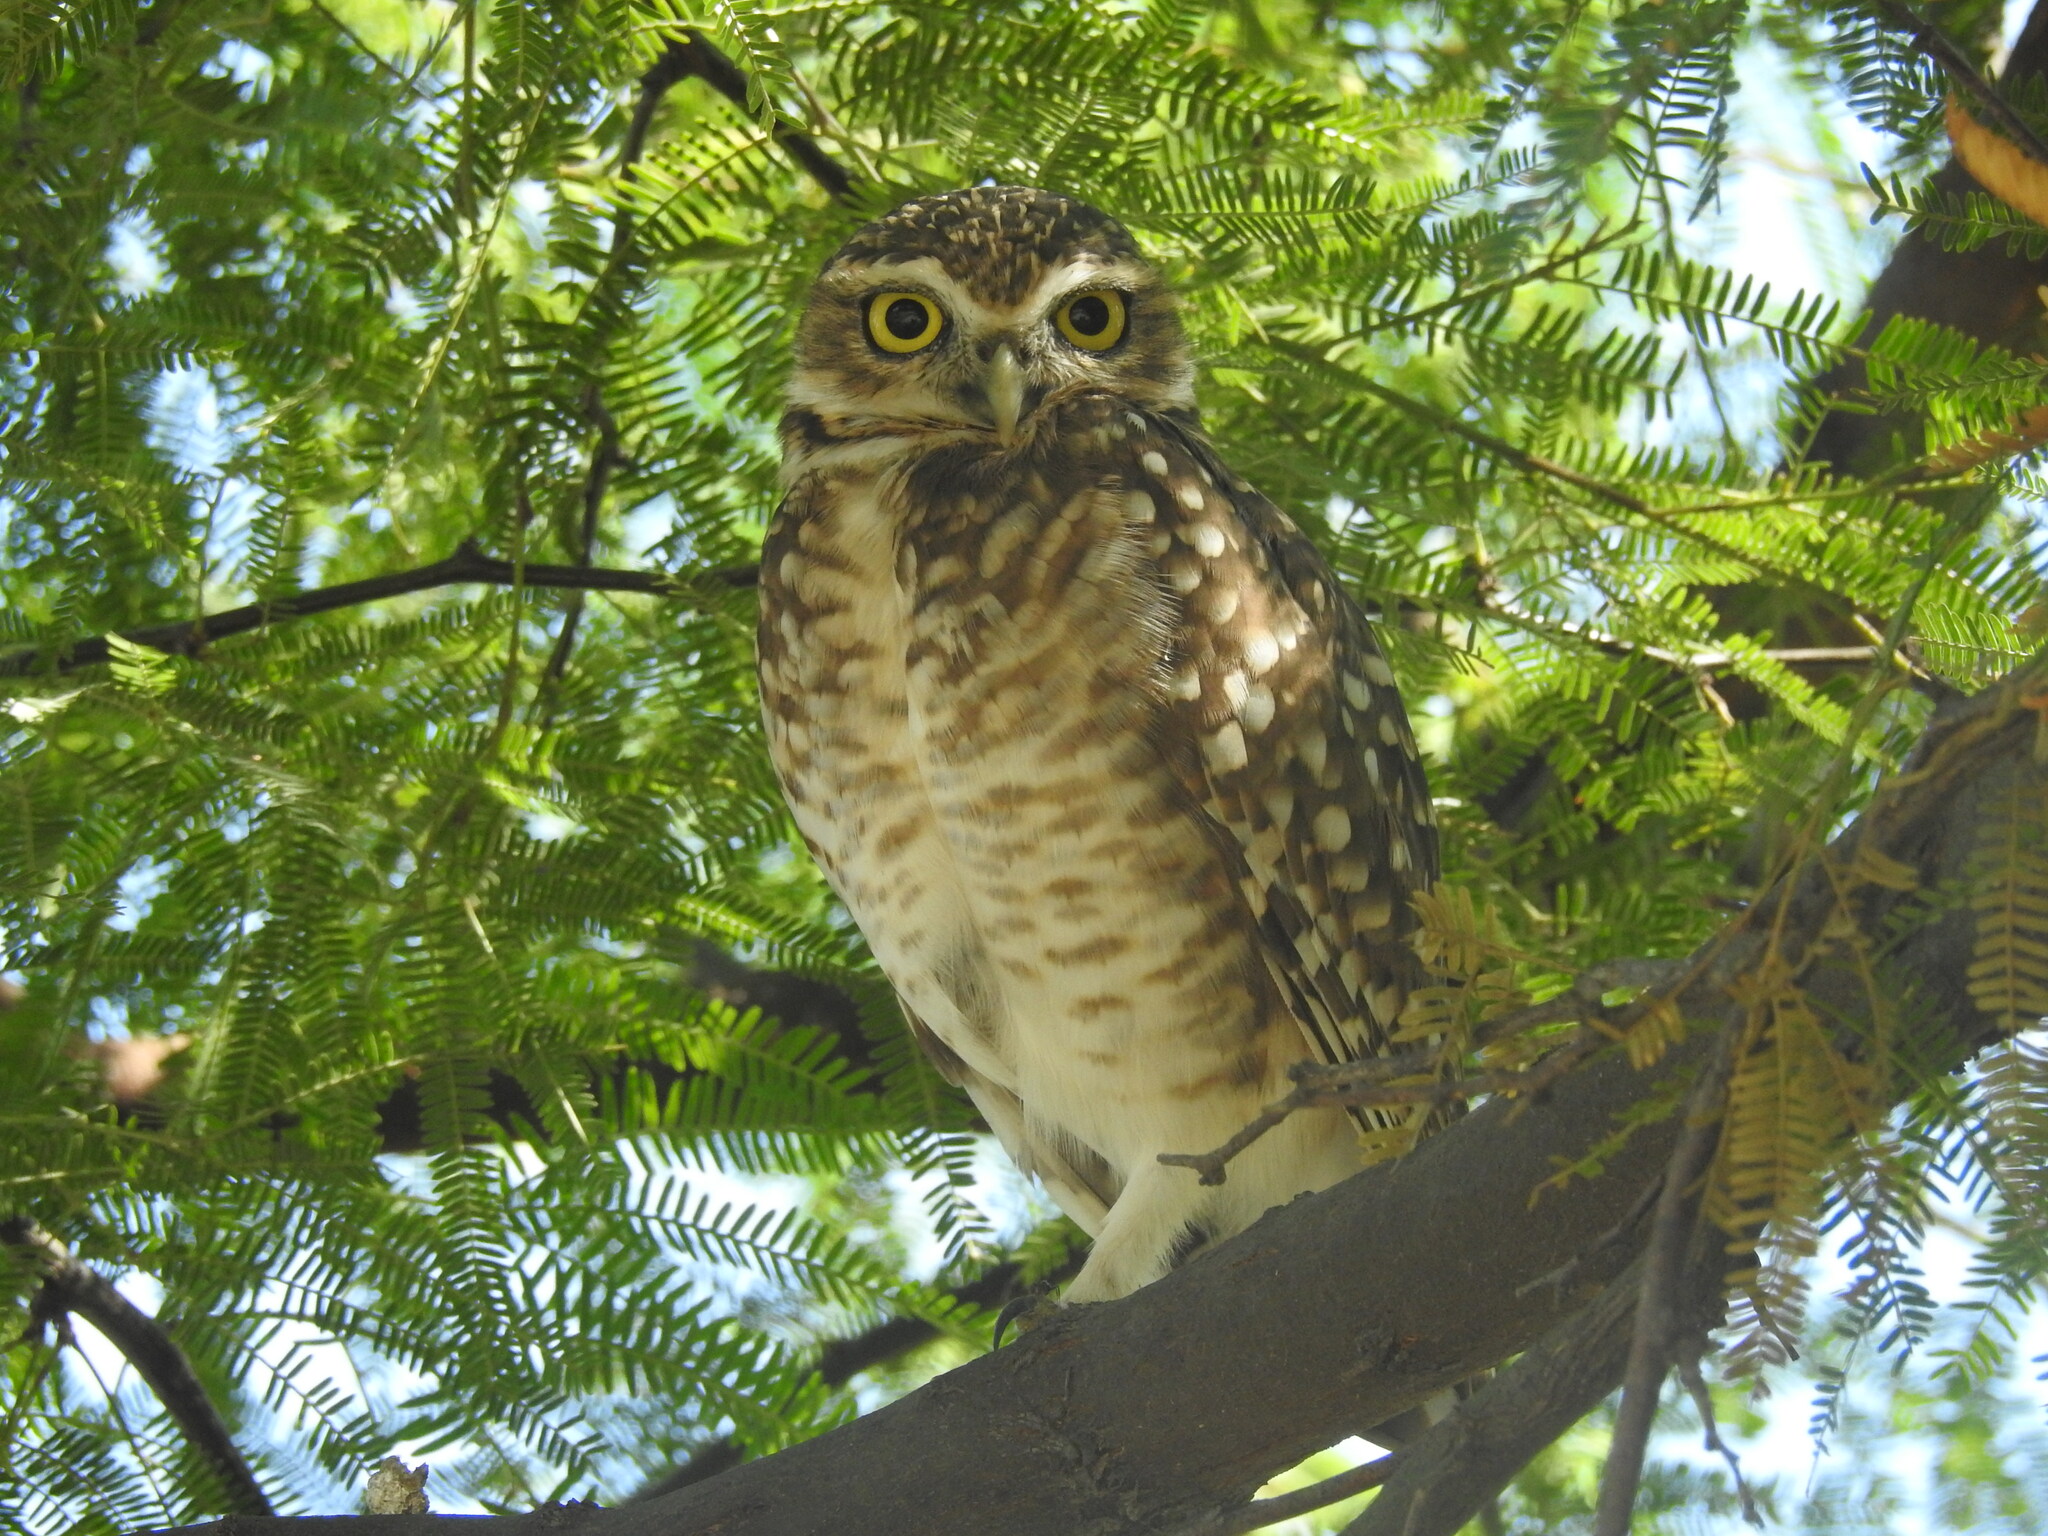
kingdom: Animalia
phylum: Chordata
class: Aves
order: Strigiformes
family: Strigidae
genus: Athene
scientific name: Athene cunicularia
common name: Burrowing owl
